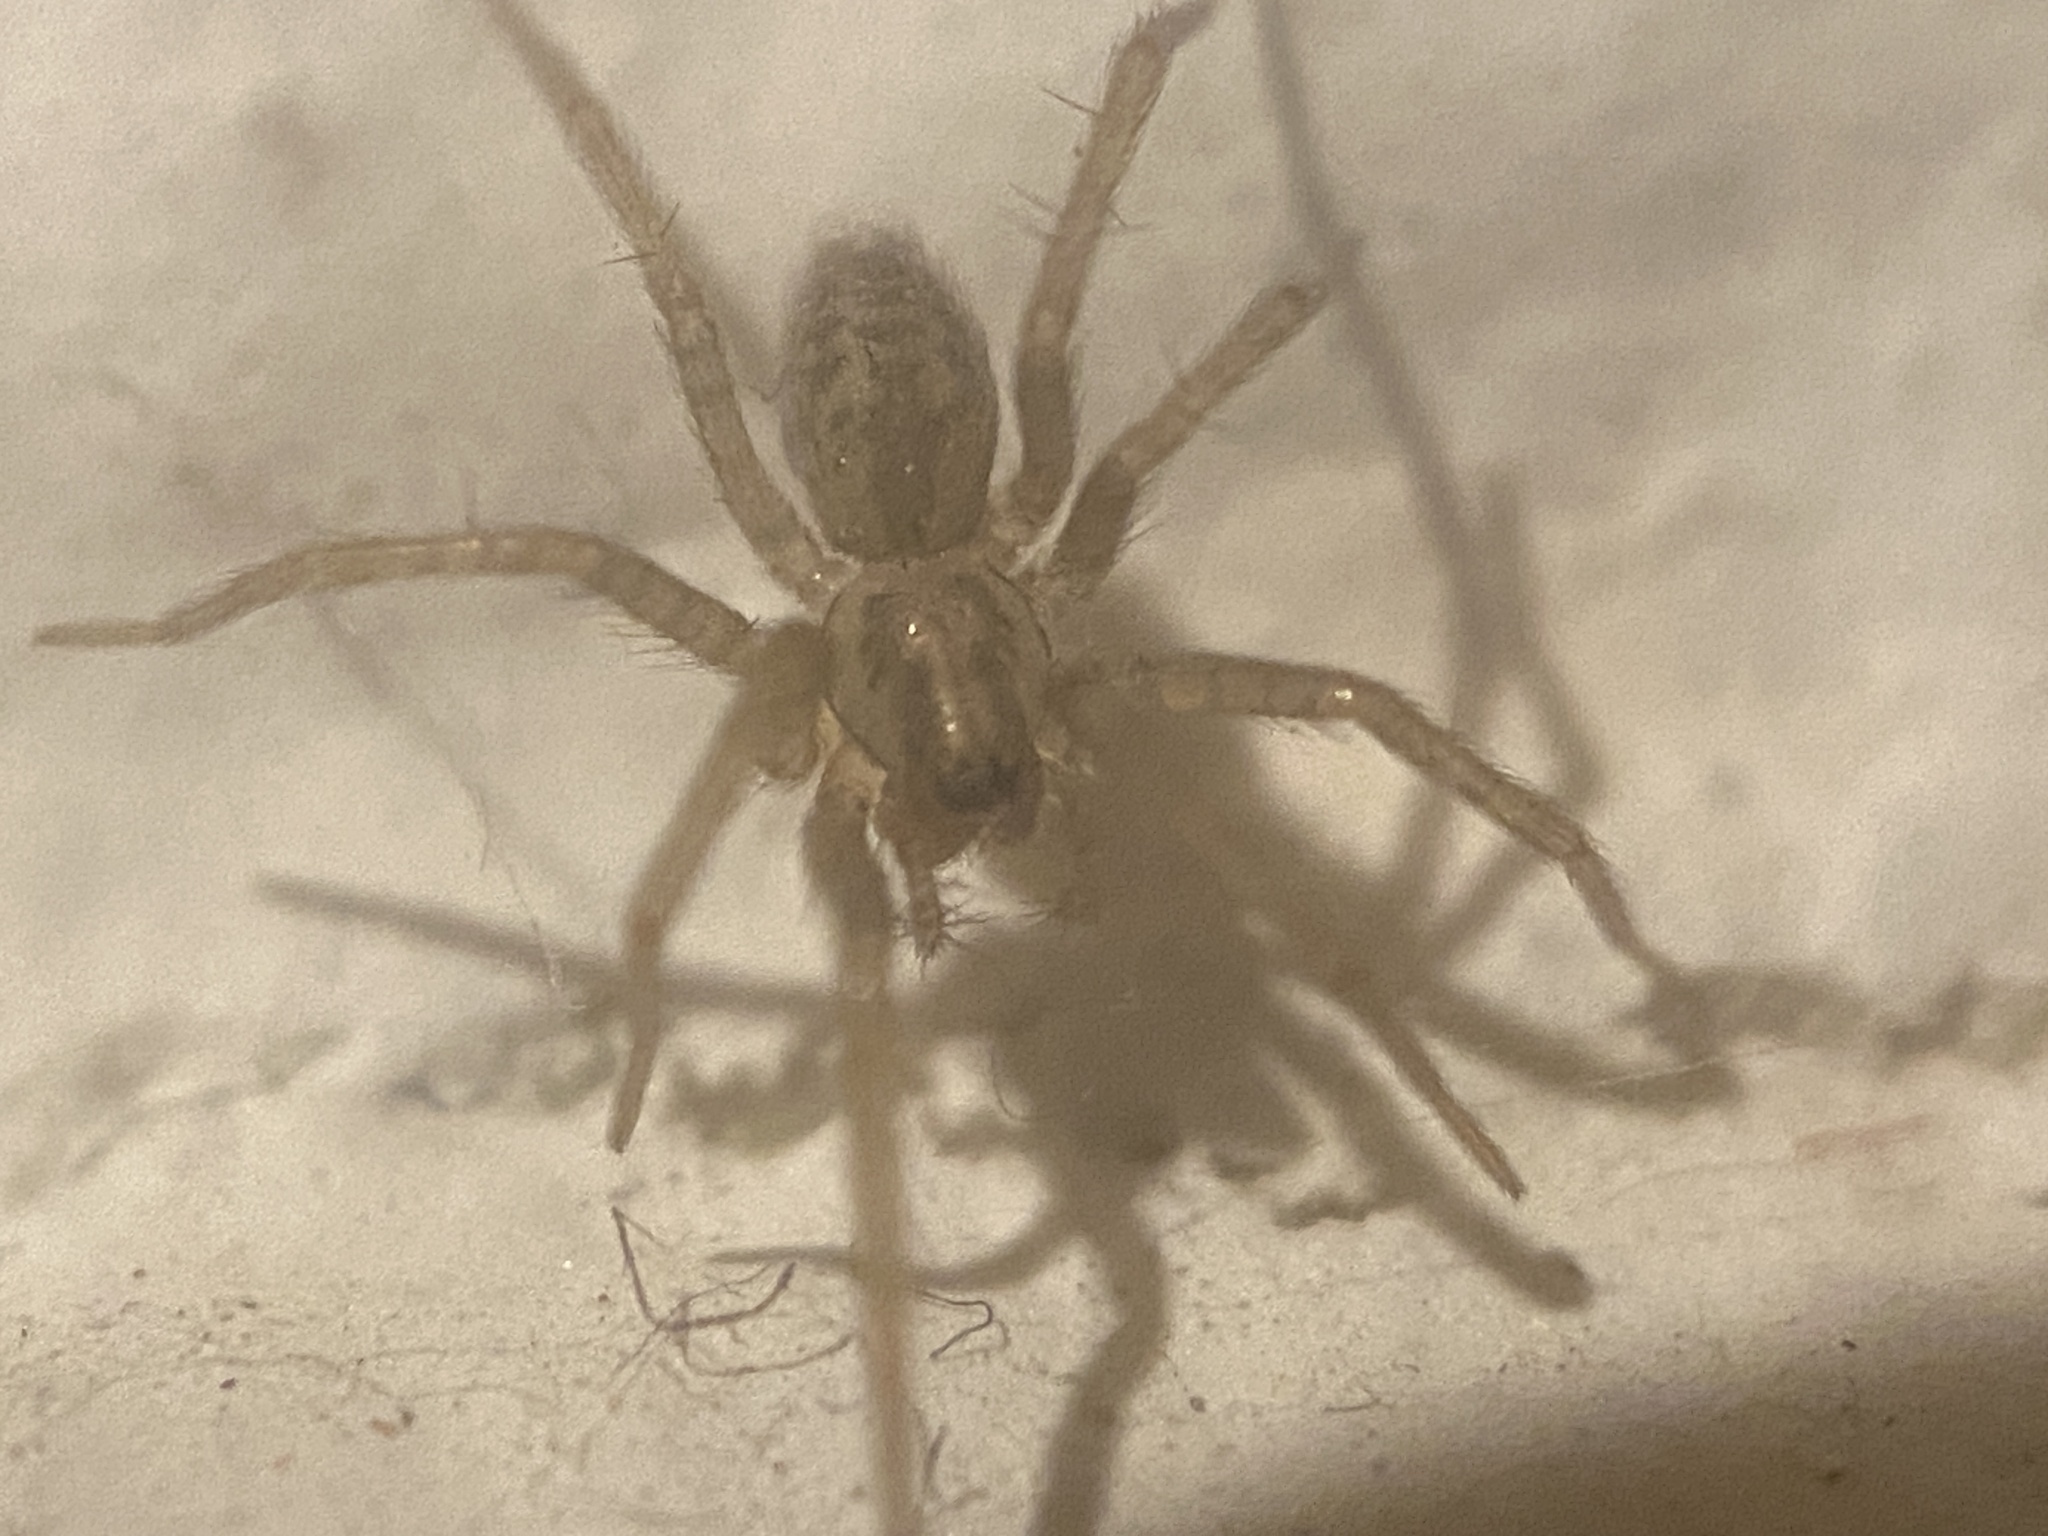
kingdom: Animalia
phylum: Arthropoda
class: Arachnida
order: Araneae
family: Agelenidae
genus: Tegenaria
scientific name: Tegenaria domestica
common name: Barn funnel weaver
